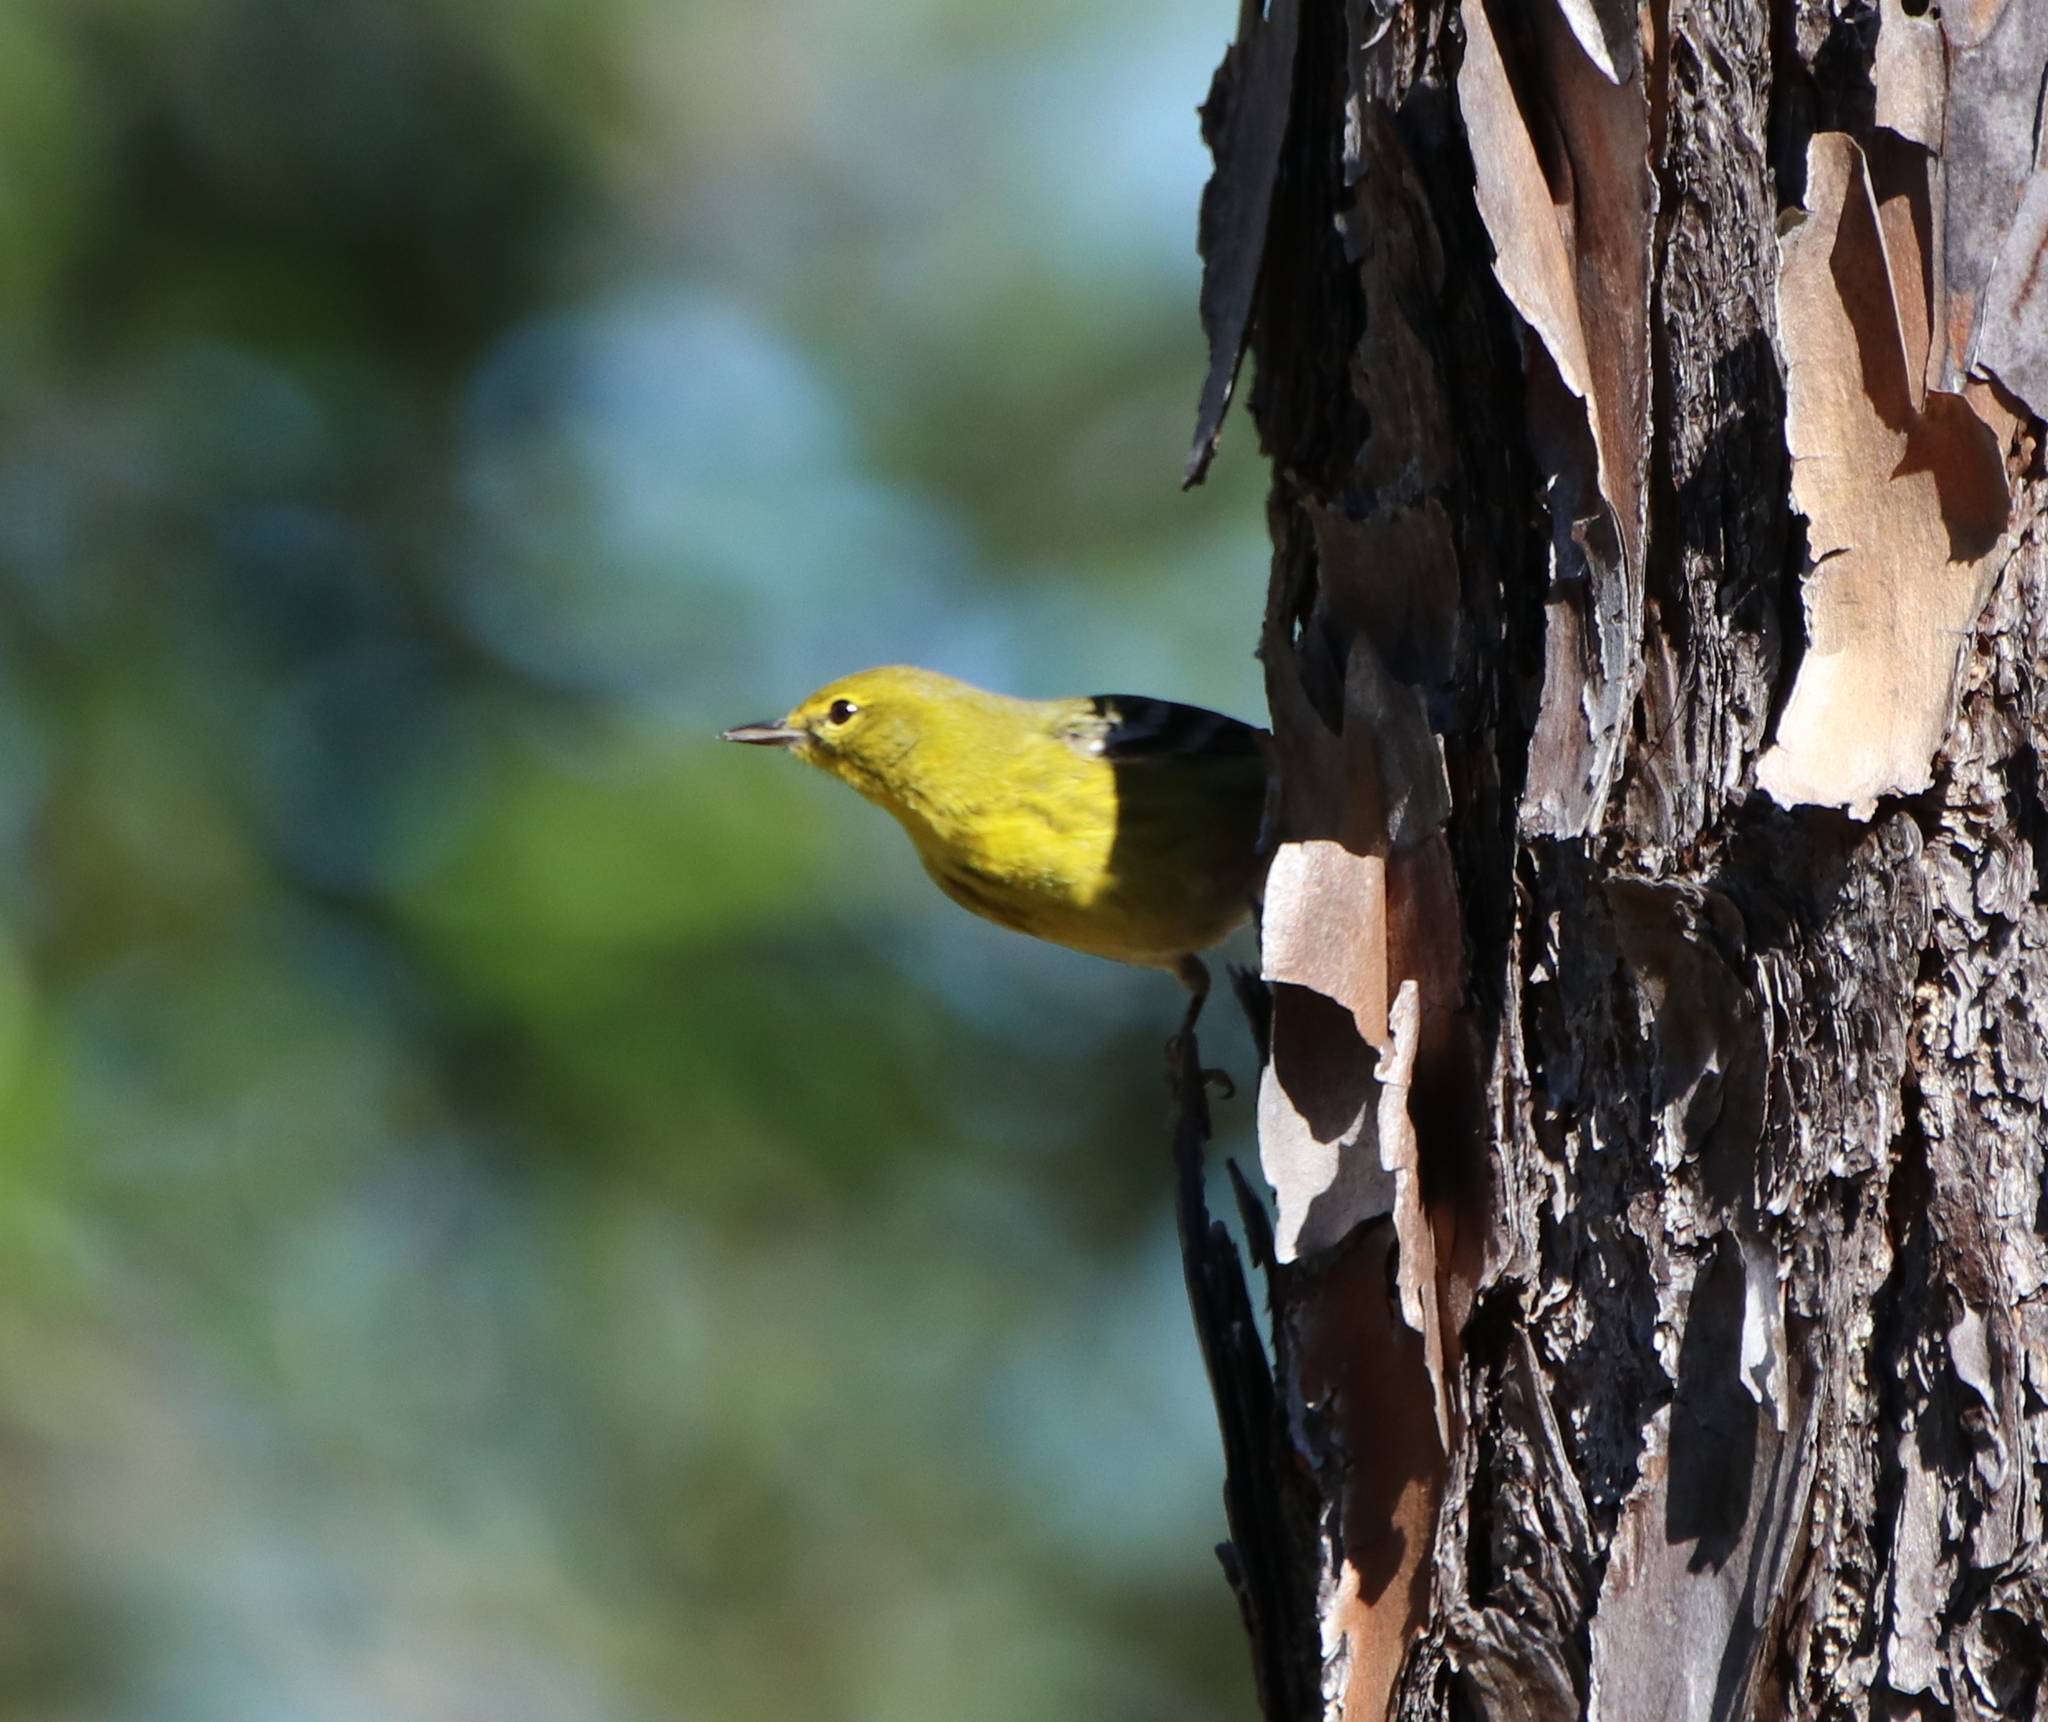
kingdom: Animalia
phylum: Chordata
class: Aves
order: Passeriformes
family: Parulidae
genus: Setophaga
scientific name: Setophaga pinus
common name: Pine warbler
